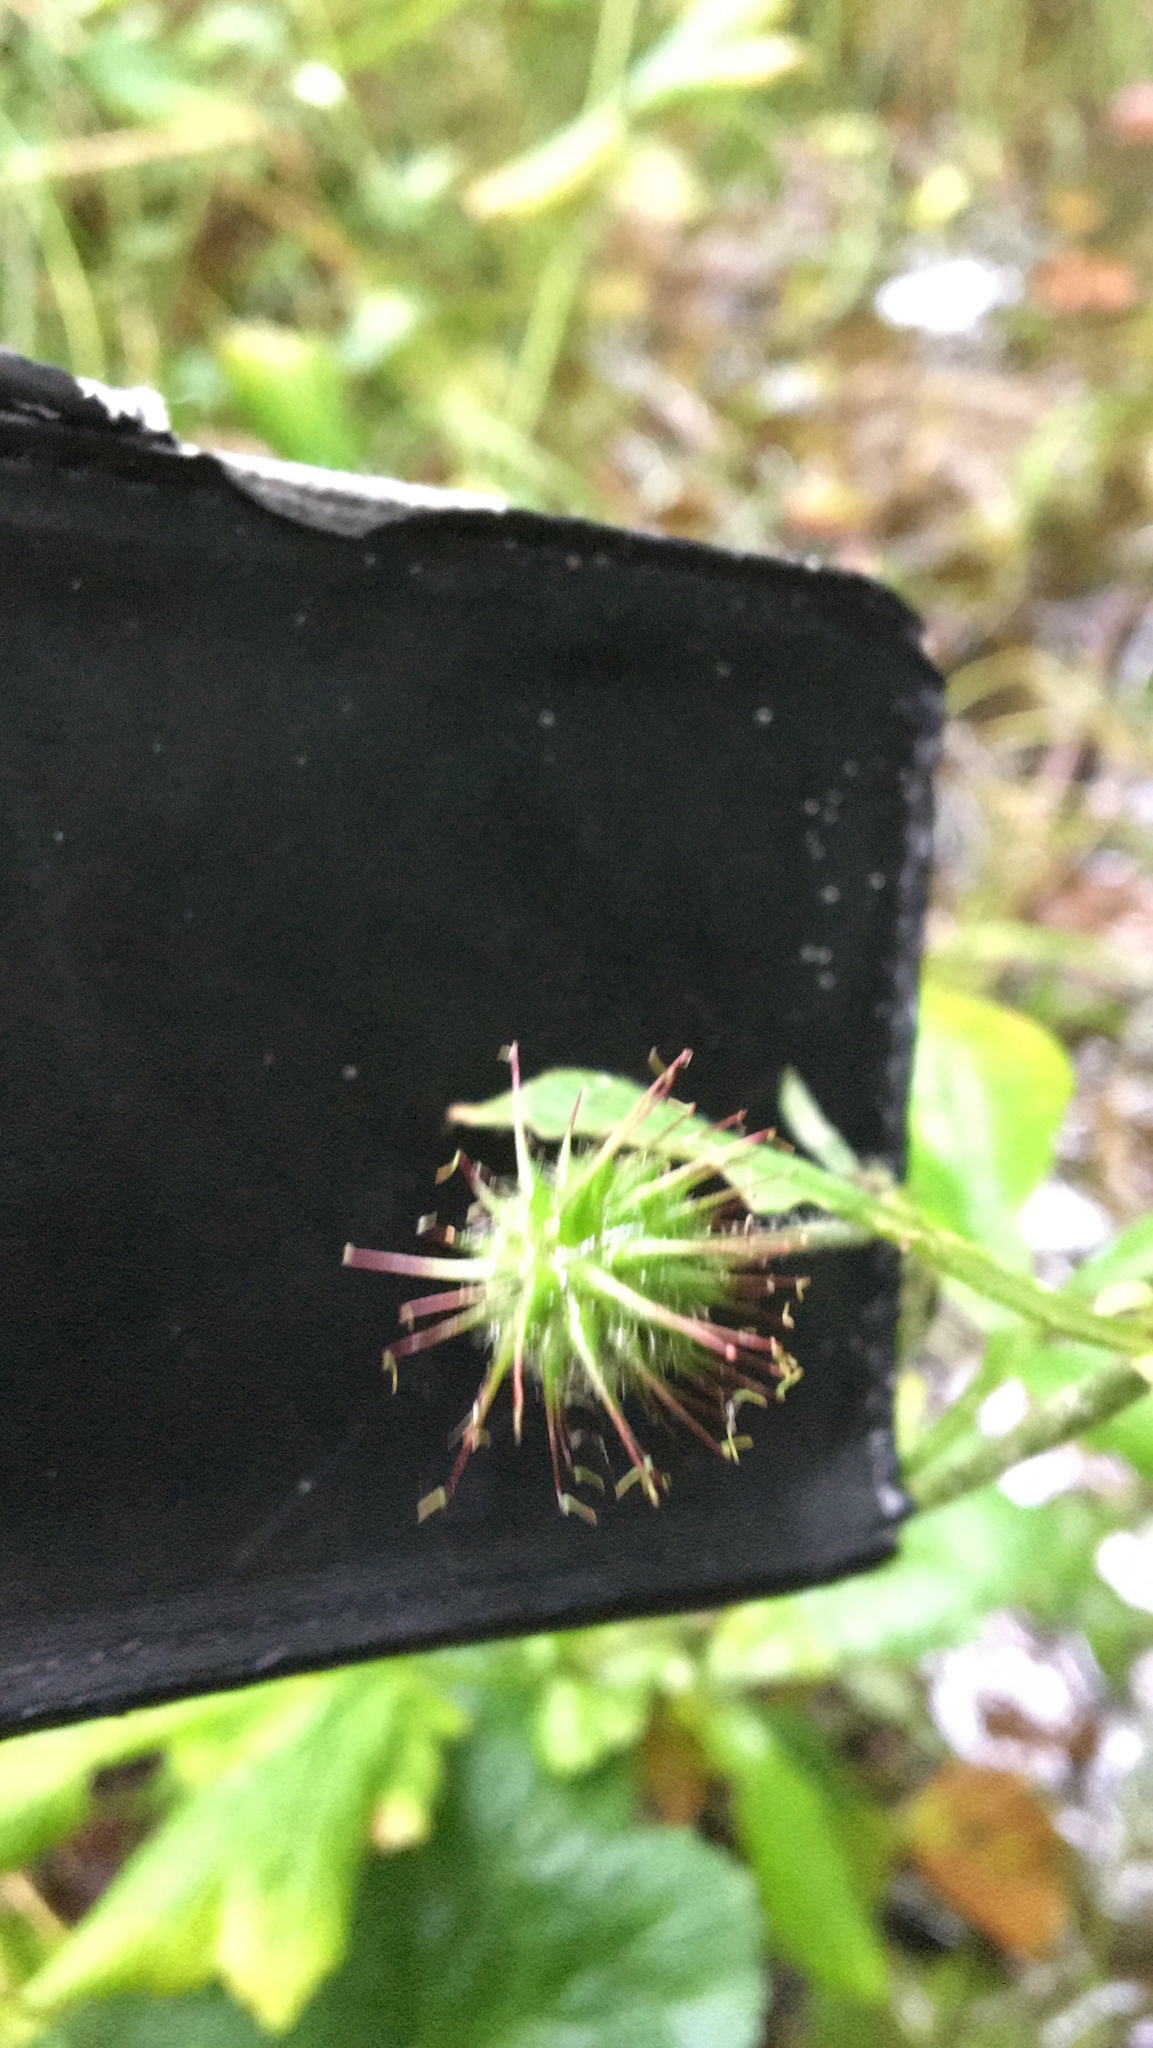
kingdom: Plantae
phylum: Tracheophyta
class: Magnoliopsida
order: Rosales
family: Rosaceae
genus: Geum
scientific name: Geum urbanum
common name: Wood avens
